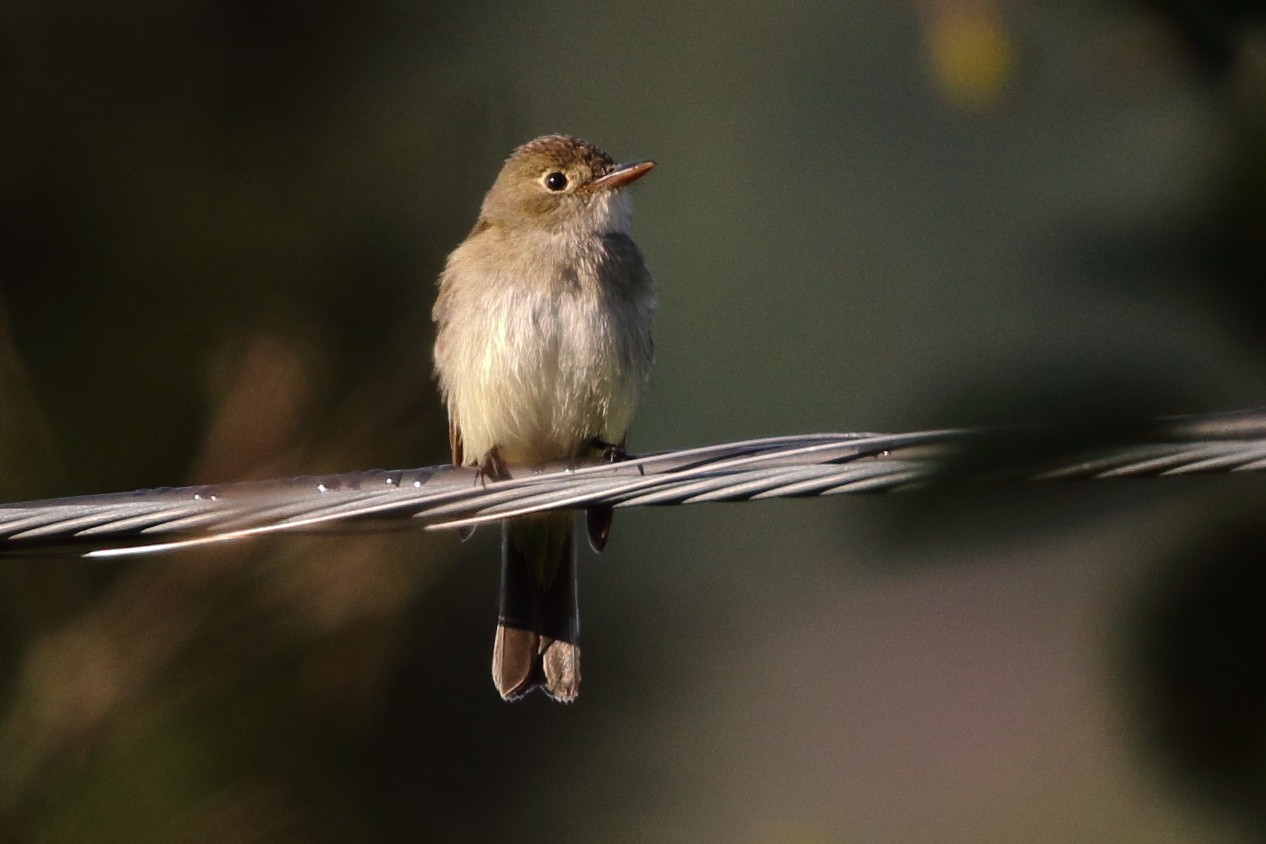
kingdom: Animalia
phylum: Chordata
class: Aves
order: Passeriformes
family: Tyrannidae
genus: Empidonax
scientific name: Empidonax alnorum
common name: Alder flycatcher
